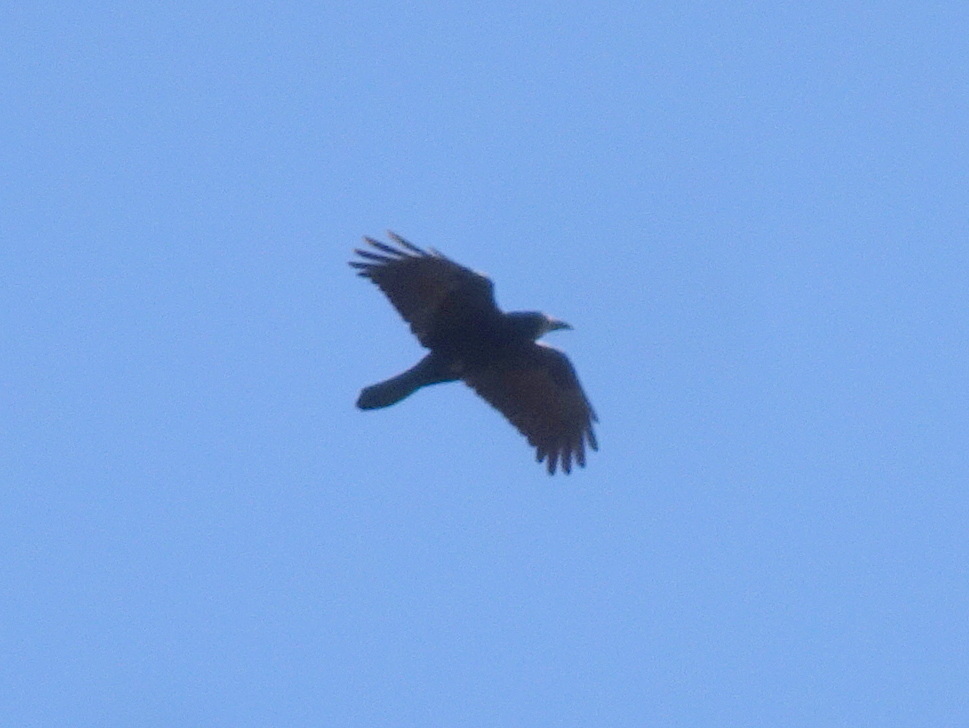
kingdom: Animalia
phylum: Chordata
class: Aves
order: Passeriformes
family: Corvidae
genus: Corvus
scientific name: Corvus frugilegus
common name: Rook
